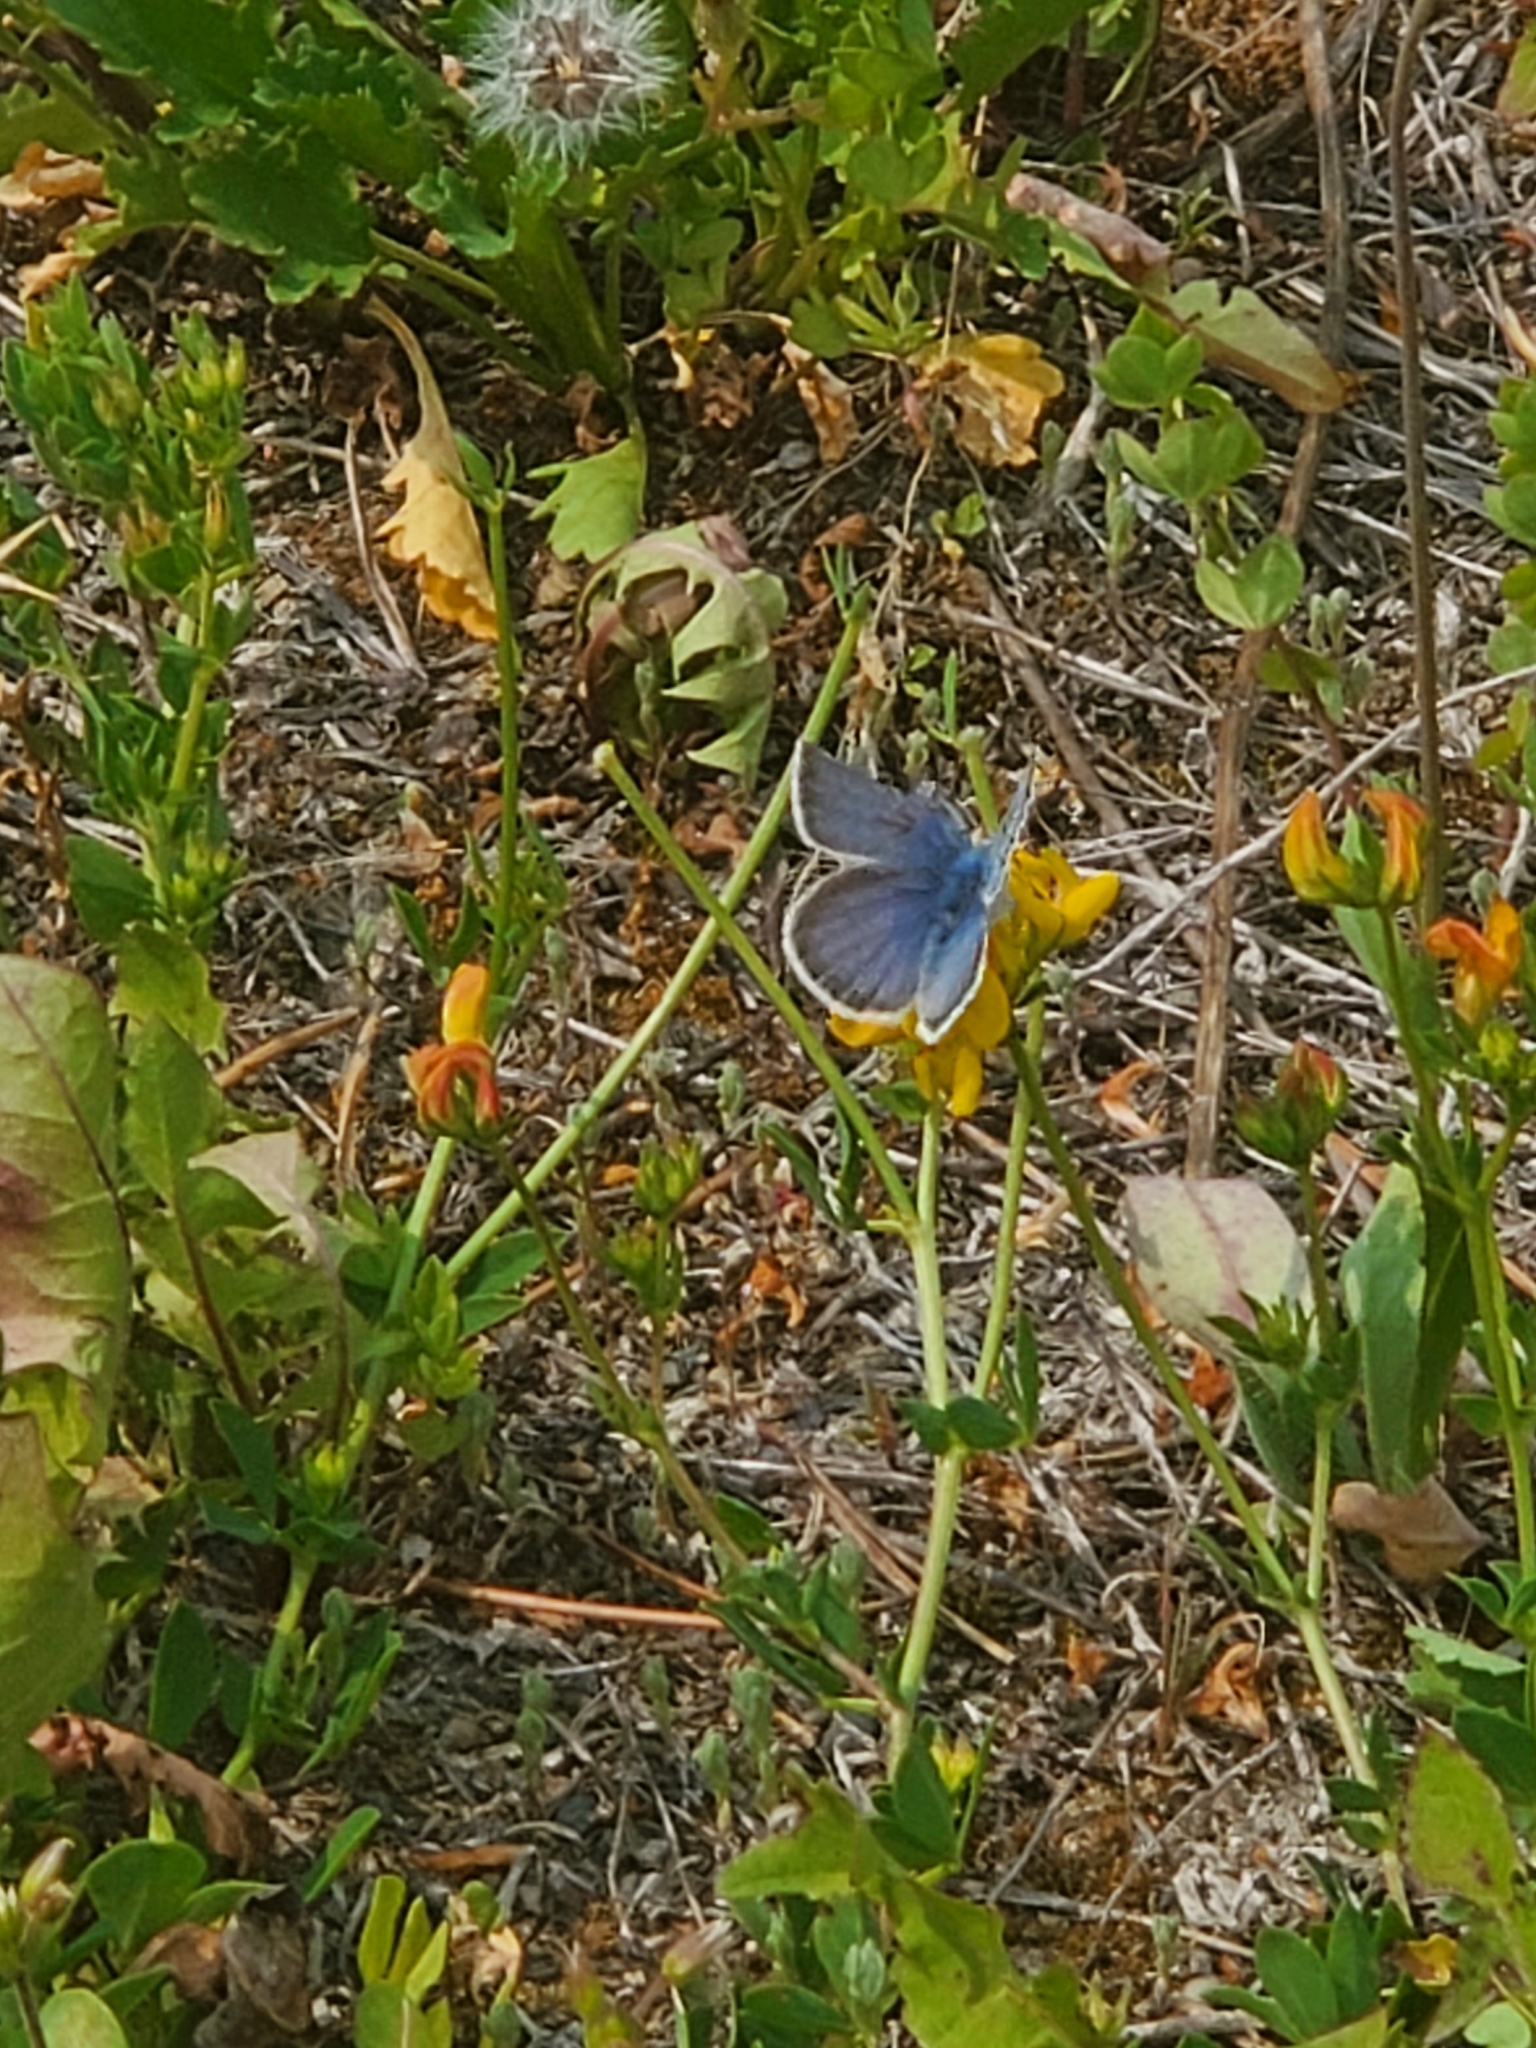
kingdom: Animalia
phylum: Arthropoda
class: Insecta
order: Lepidoptera
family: Lycaenidae
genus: Icaricia
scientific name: Icaricia icarioides
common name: Boisduval's blue
